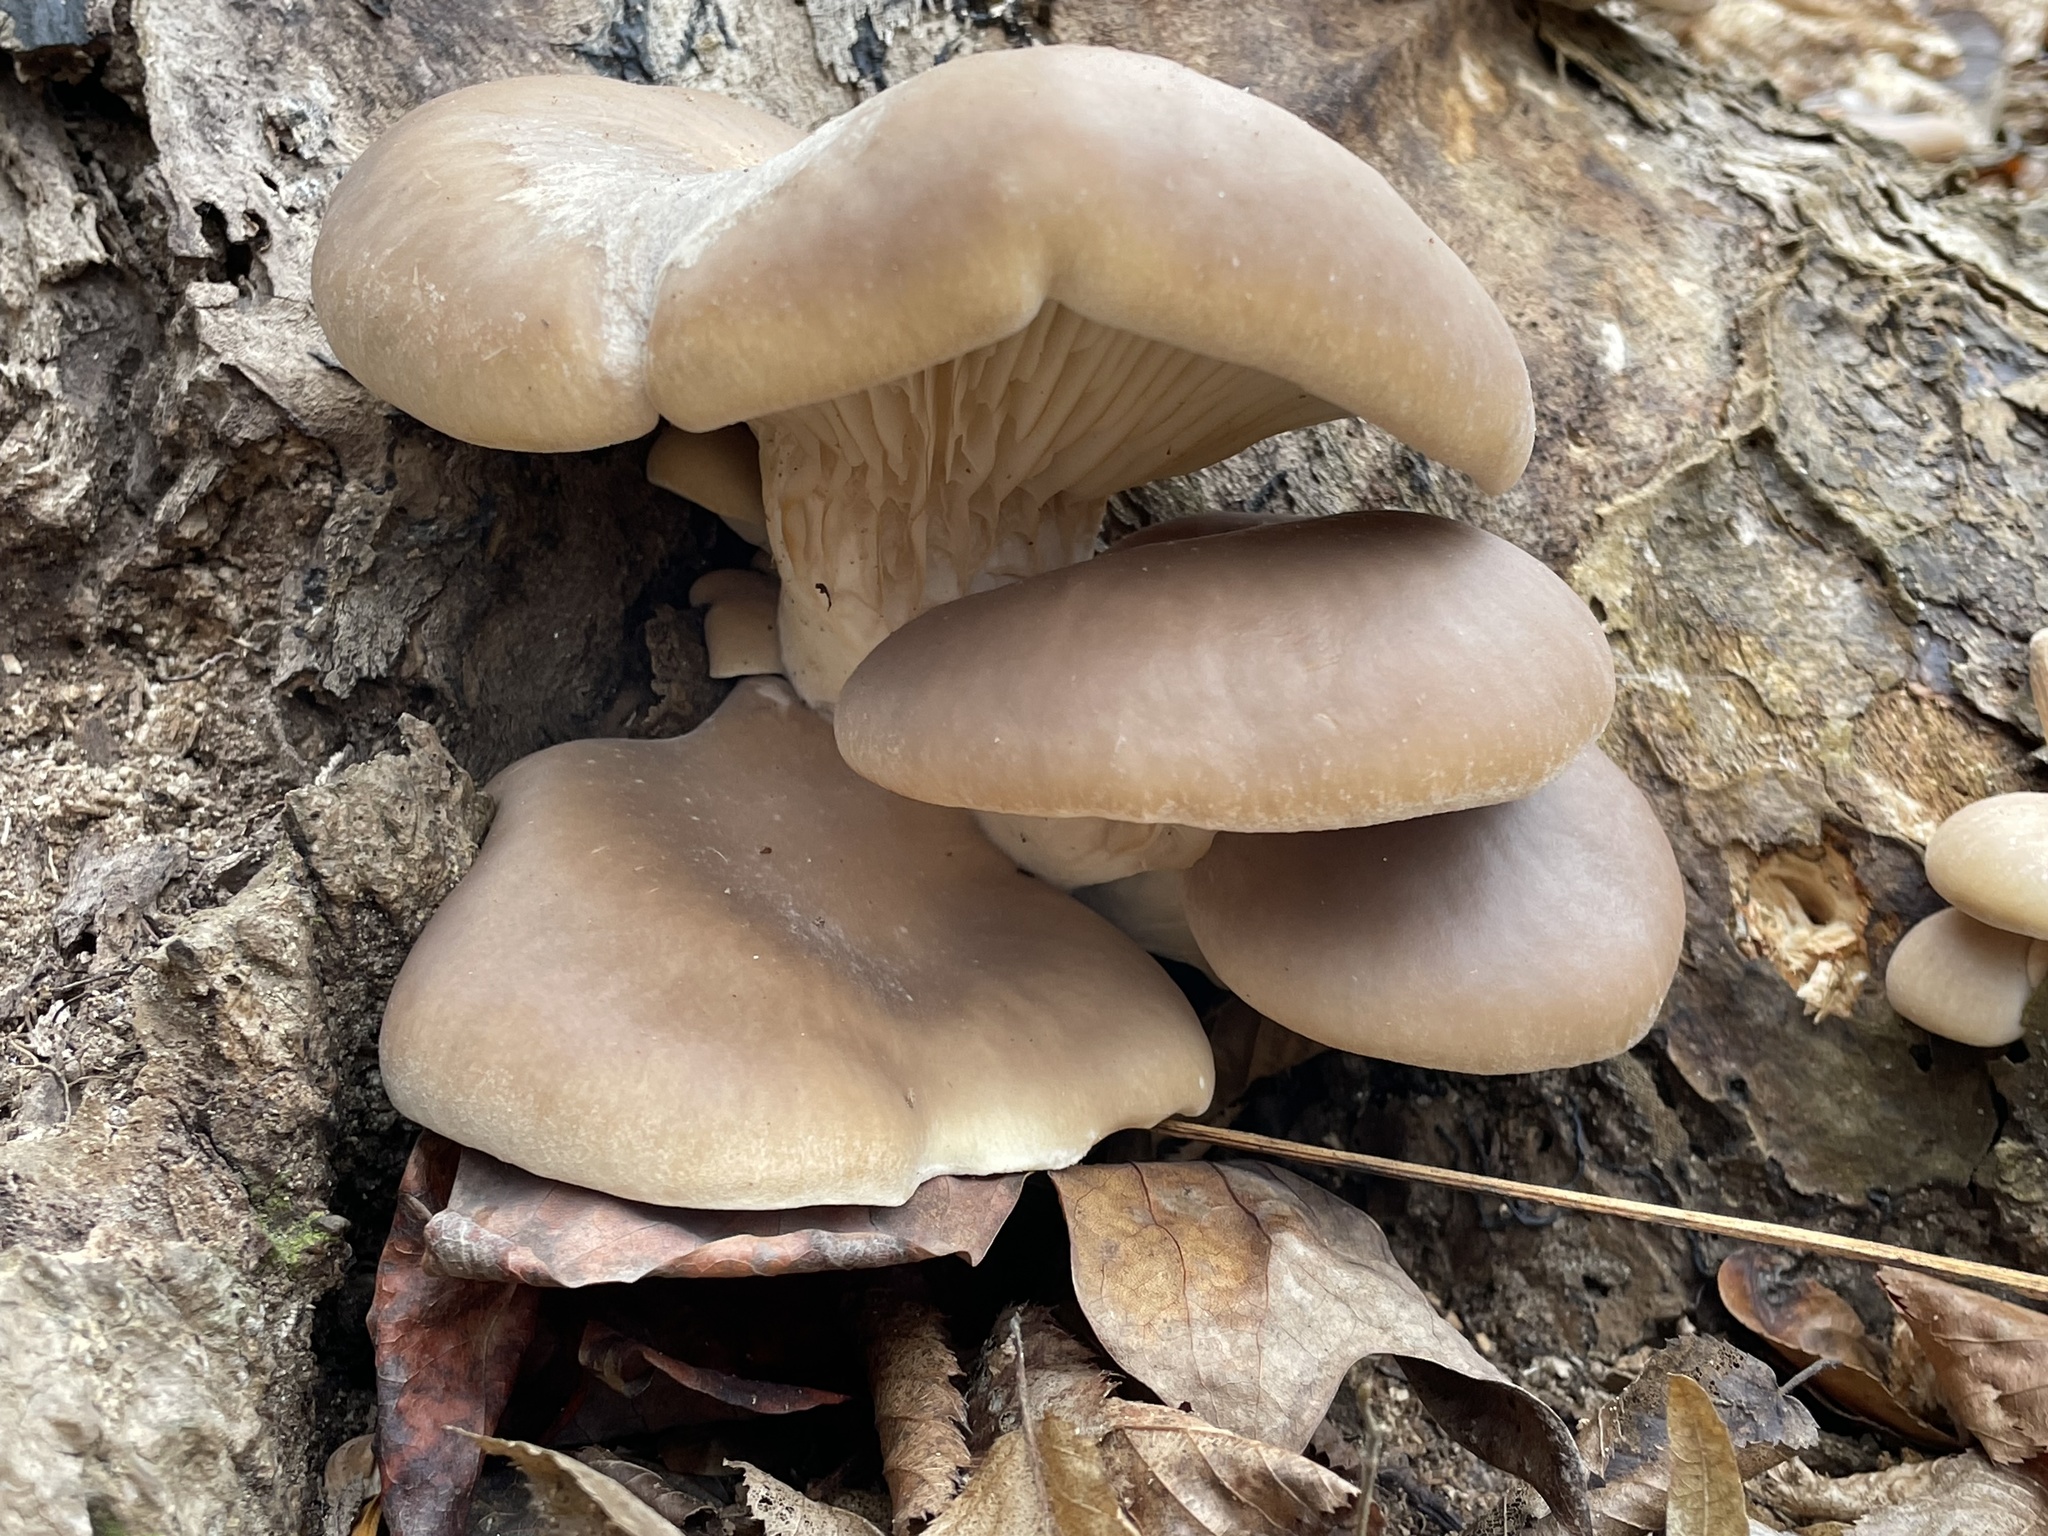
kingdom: Fungi
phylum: Basidiomycota
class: Agaricomycetes
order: Agaricales
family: Pleurotaceae
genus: Pleurotus
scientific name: Pleurotus ostreatus
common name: Oyster mushroom
